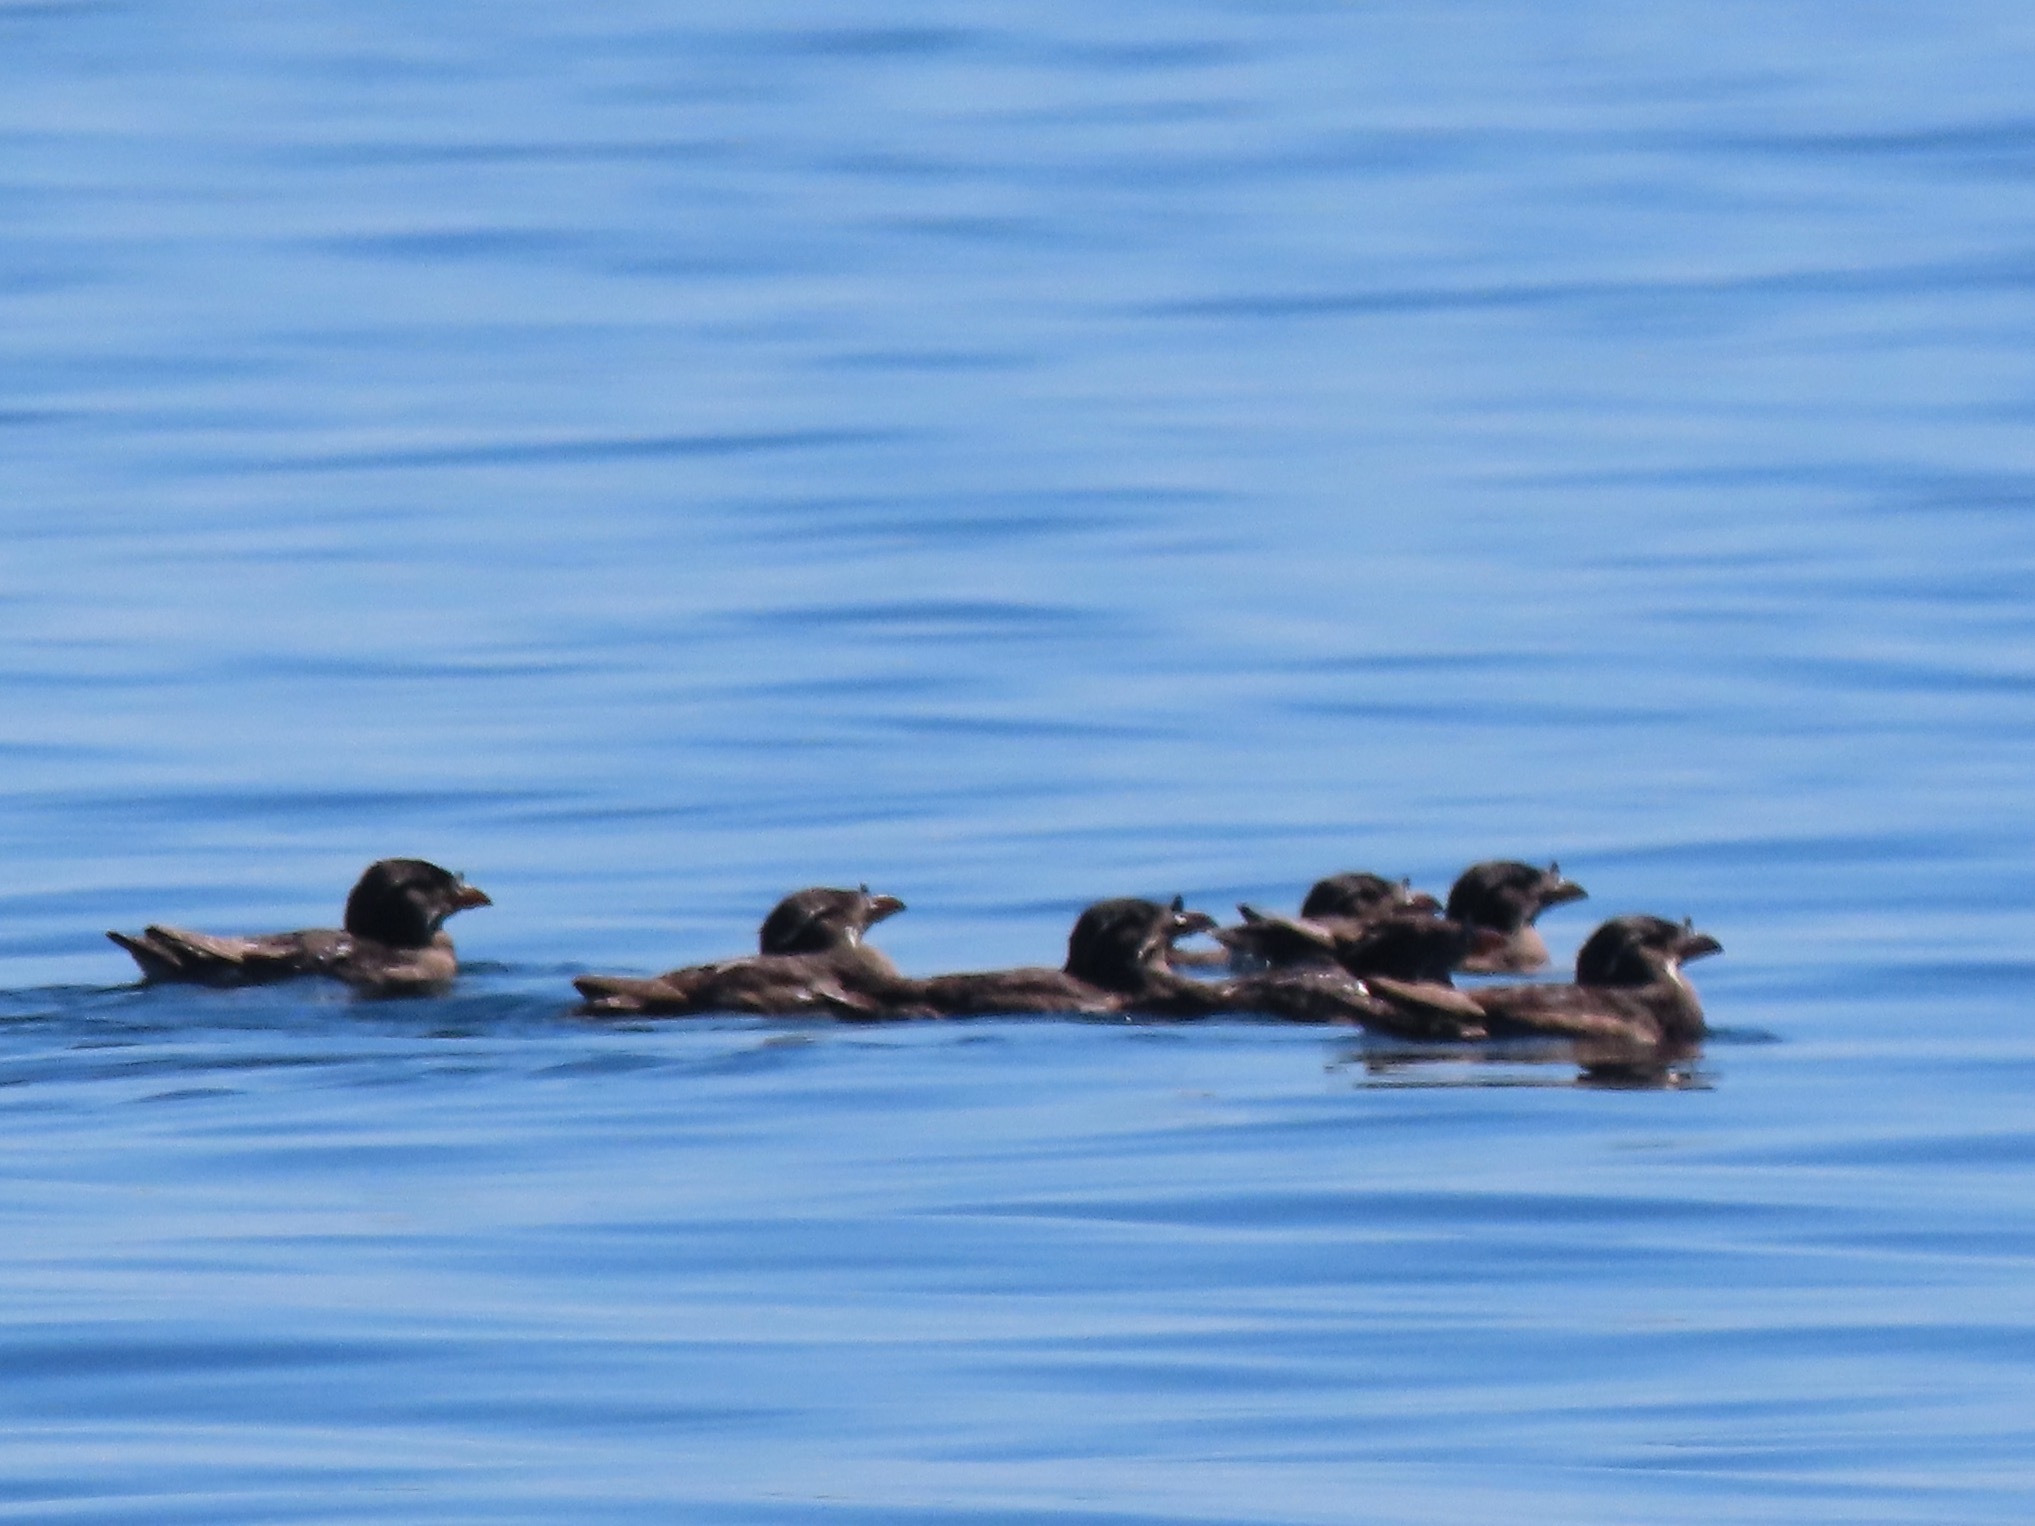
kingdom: Animalia
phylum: Chordata
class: Aves
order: Charadriiformes
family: Alcidae
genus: Cerorhinca
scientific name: Cerorhinca monocerata
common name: Rhinoceros auklet
